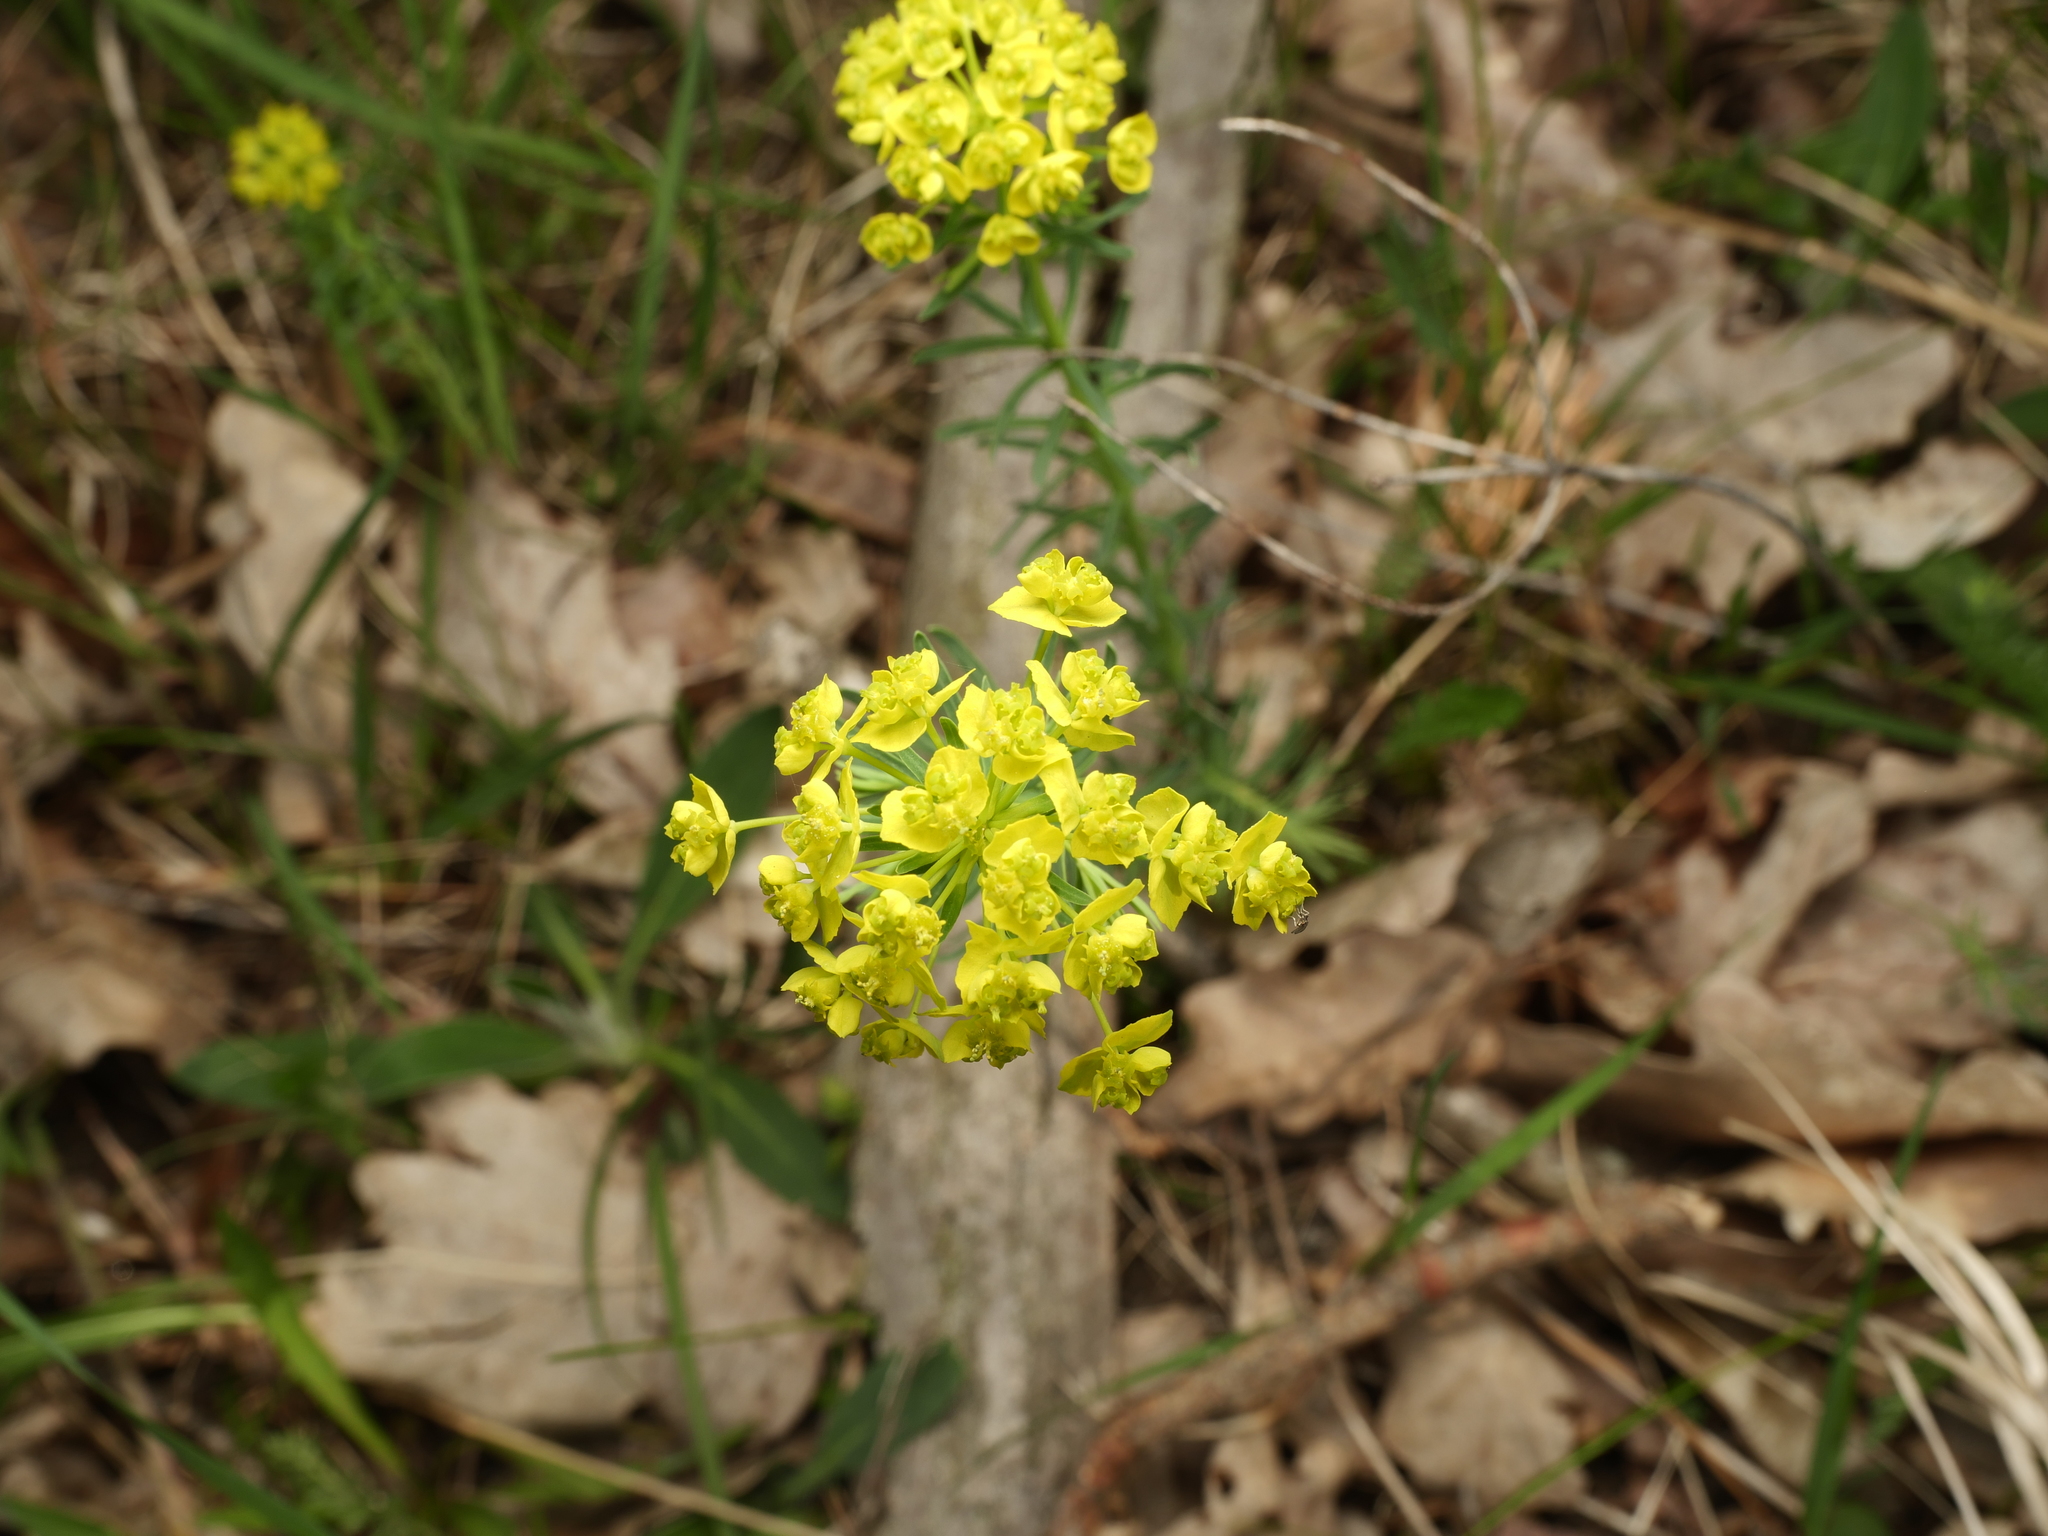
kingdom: Plantae
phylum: Tracheophyta
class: Magnoliopsida
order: Malpighiales
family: Euphorbiaceae
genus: Euphorbia
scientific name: Euphorbia cyparissias
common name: Cypress spurge
